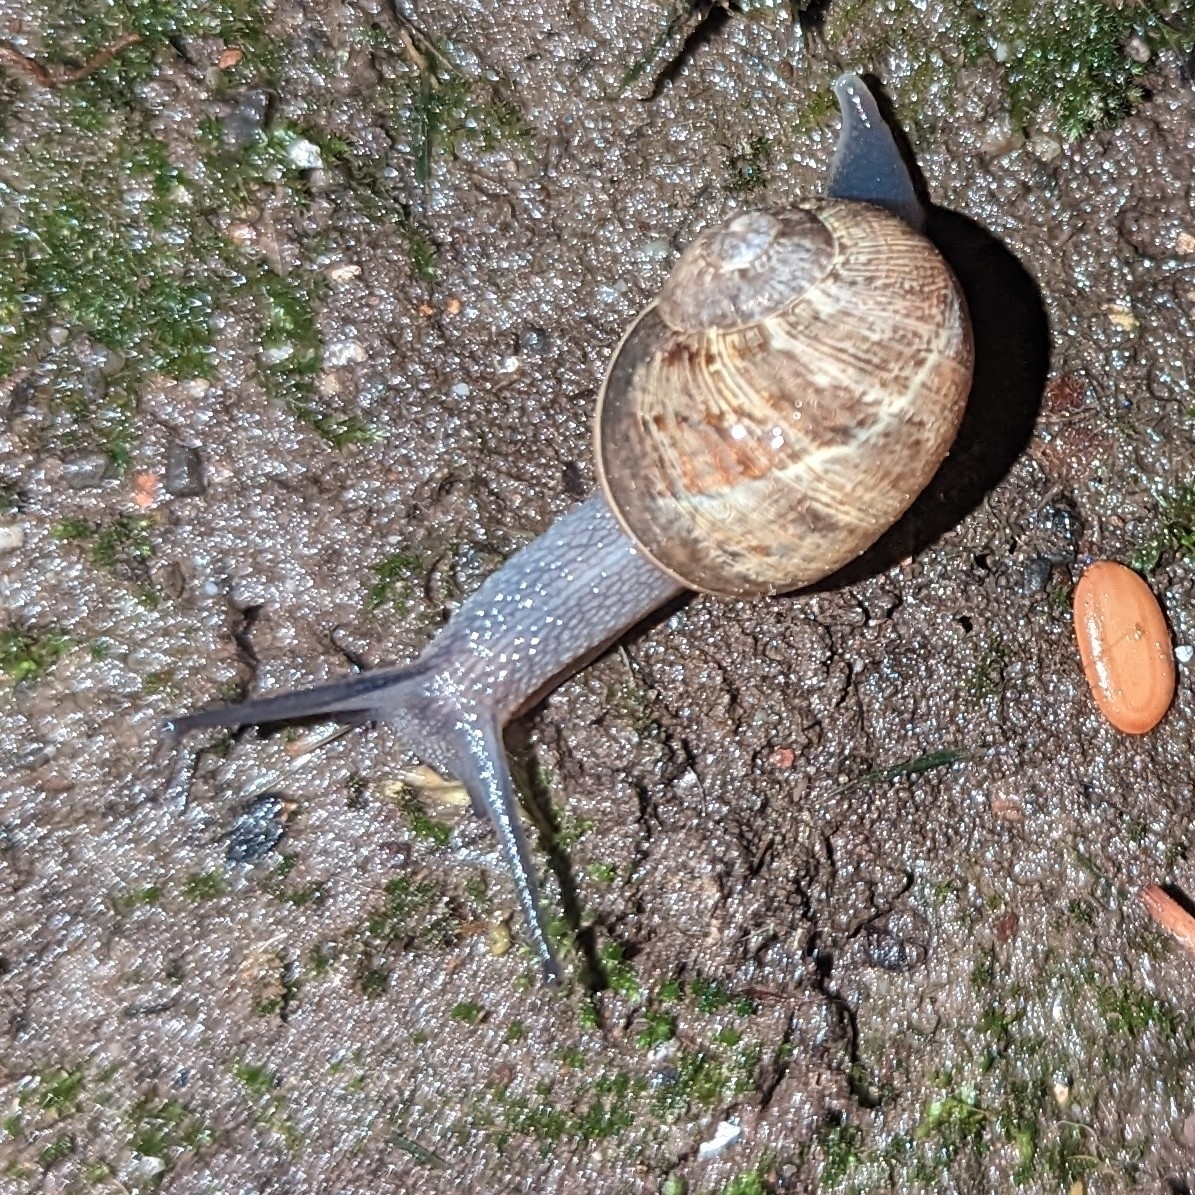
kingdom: Animalia
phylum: Mollusca
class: Gastropoda
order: Stylommatophora
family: Helicidae
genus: Cornu
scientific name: Cornu aspersum
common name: Brown garden snail
